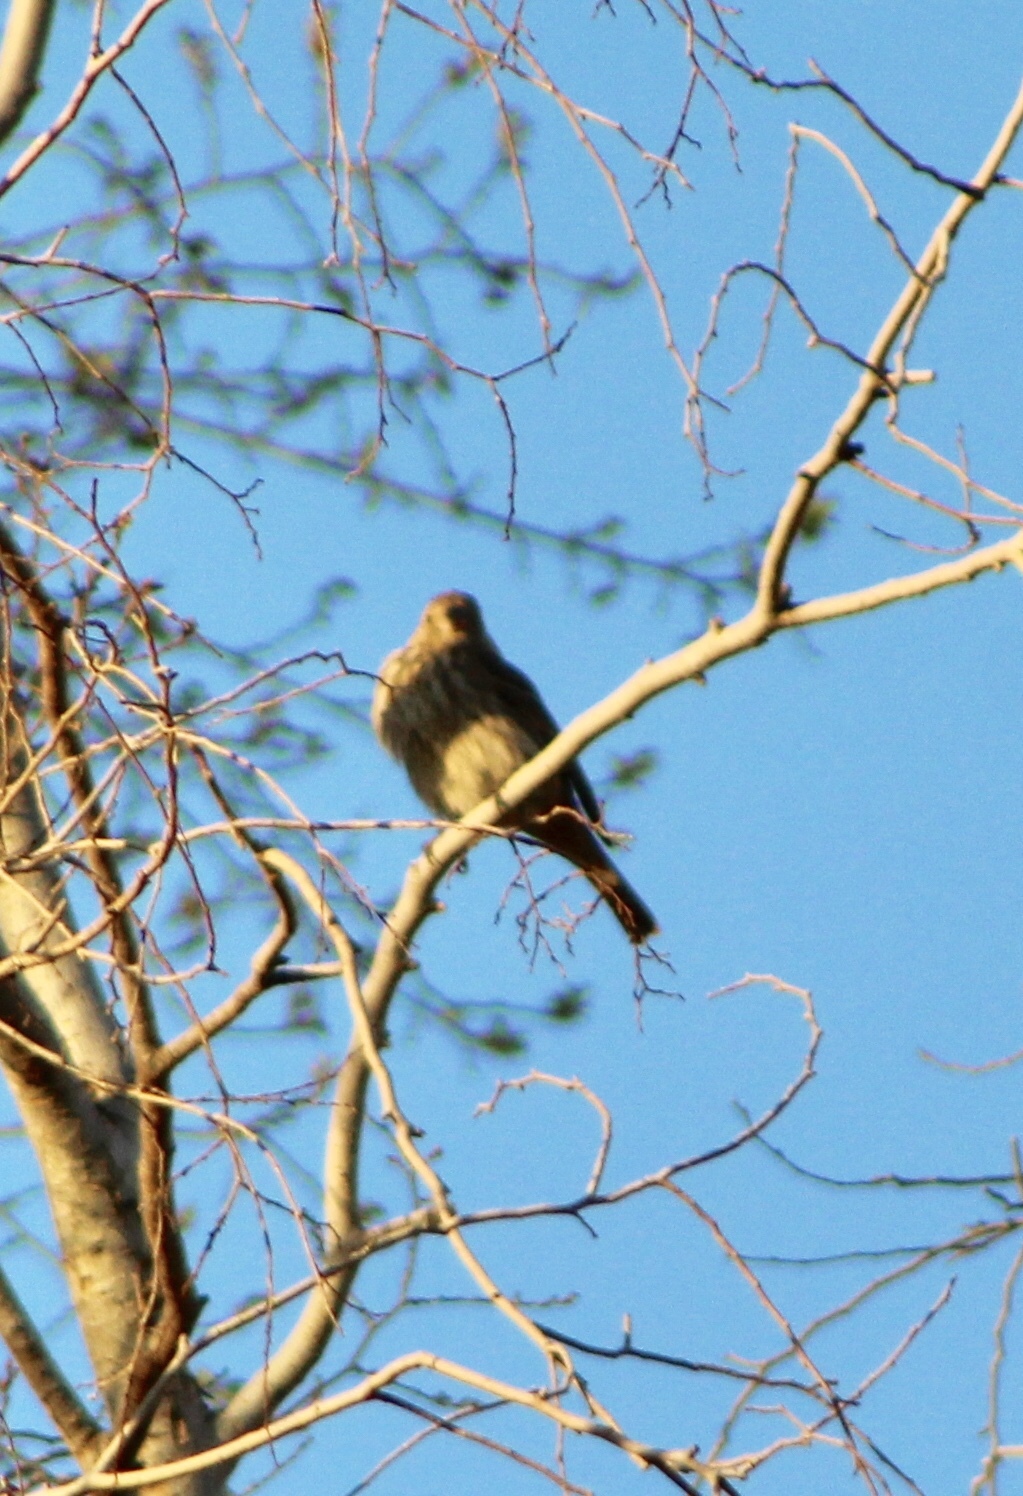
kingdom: Animalia
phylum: Chordata
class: Aves
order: Passeriformes
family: Fringillidae
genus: Haemorhous
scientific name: Haemorhous mexicanus
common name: House finch
